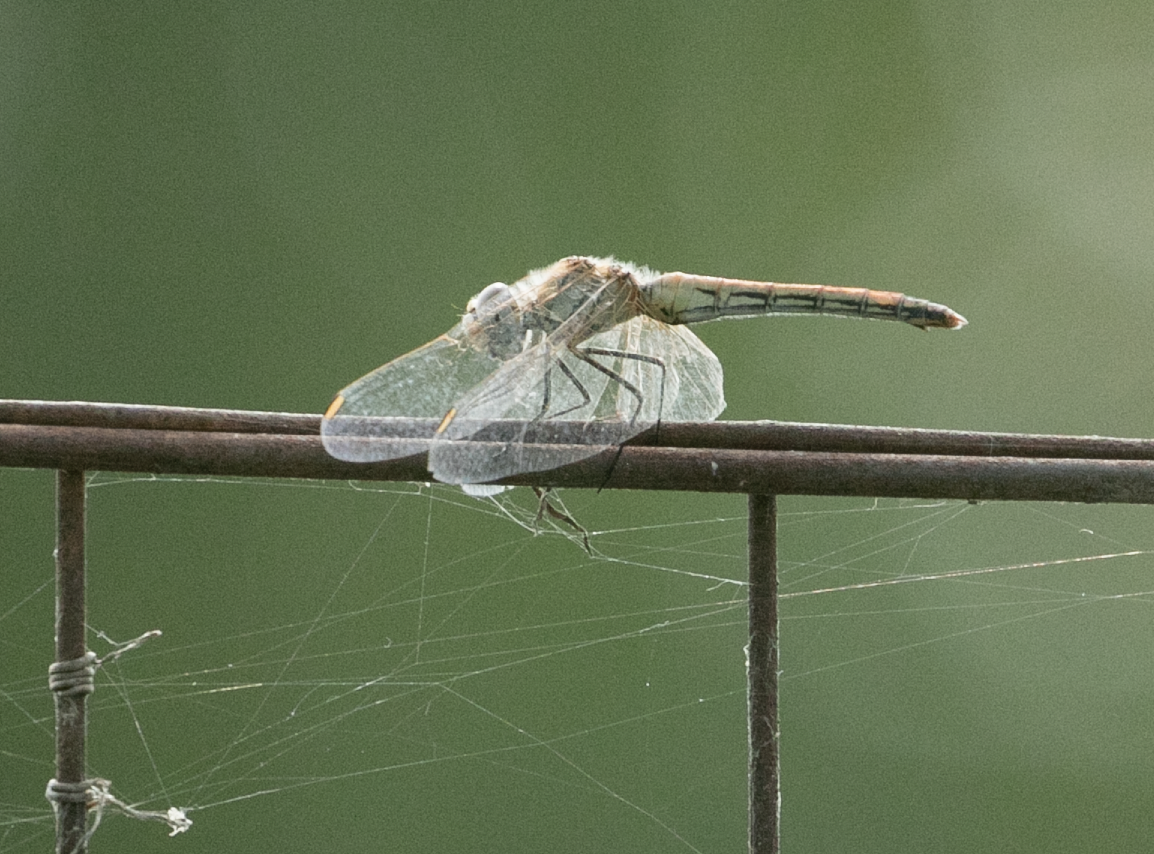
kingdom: Animalia
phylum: Arthropoda
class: Insecta
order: Odonata
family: Libellulidae
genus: Sympetrum
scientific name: Sympetrum fonscolombii
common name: Red-veined darter
